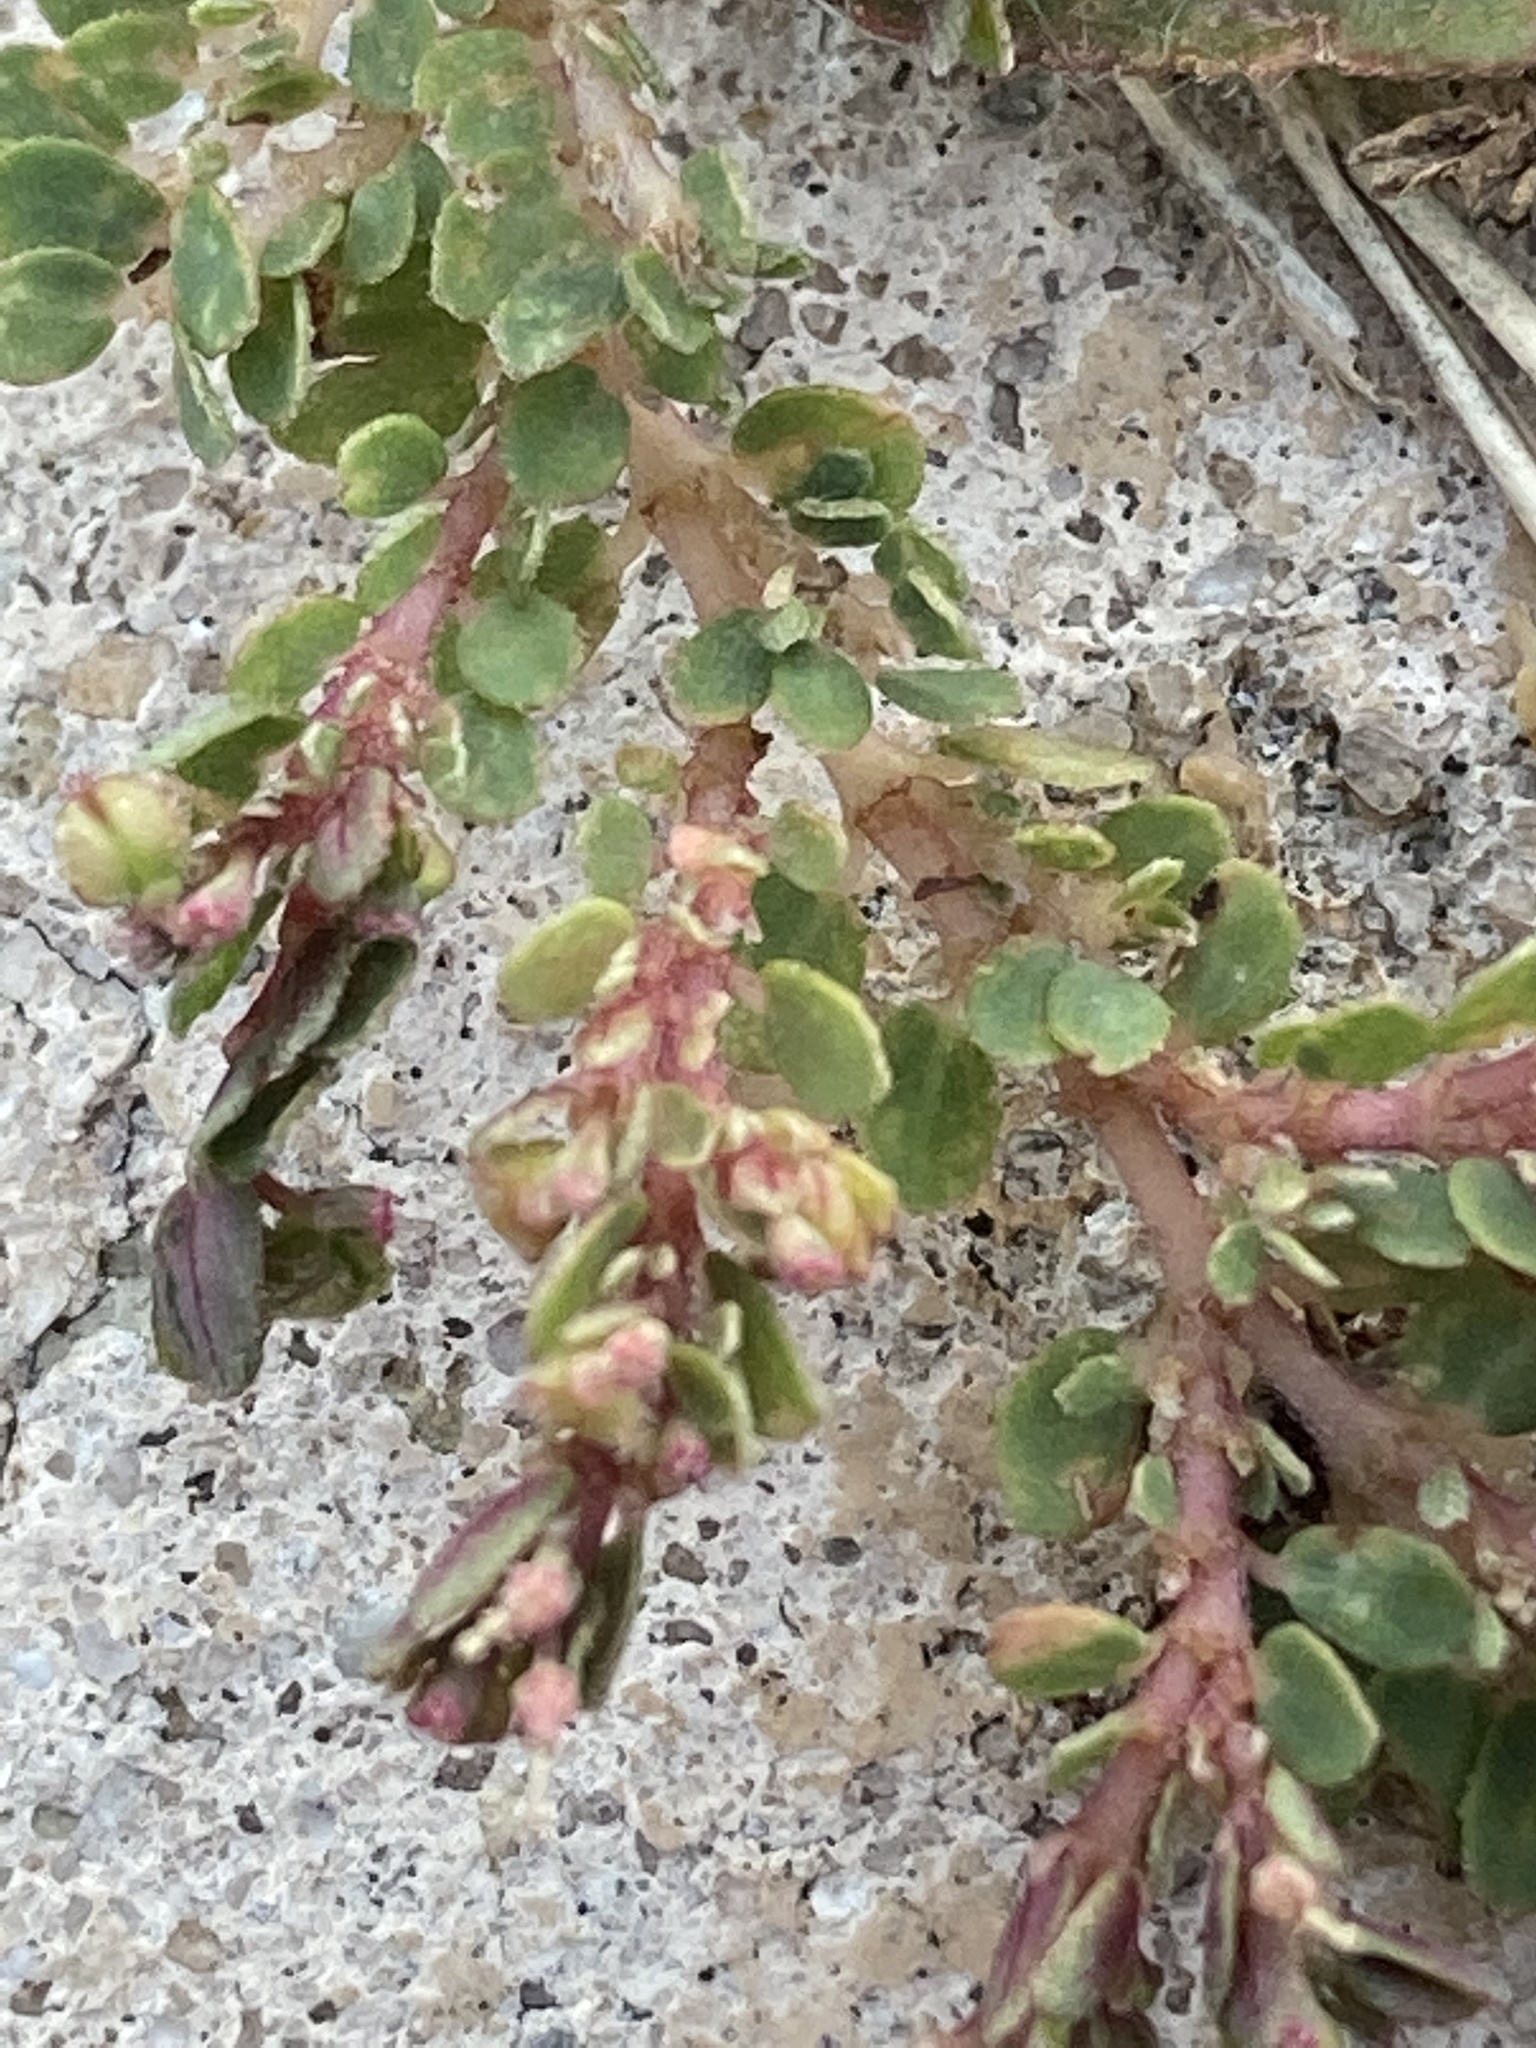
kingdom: Plantae
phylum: Tracheophyta
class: Magnoliopsida
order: Malpighiales
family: Euphorbiaceae
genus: Euphorbia
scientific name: Euphorbia prostrata
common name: Prostrate sandmat
